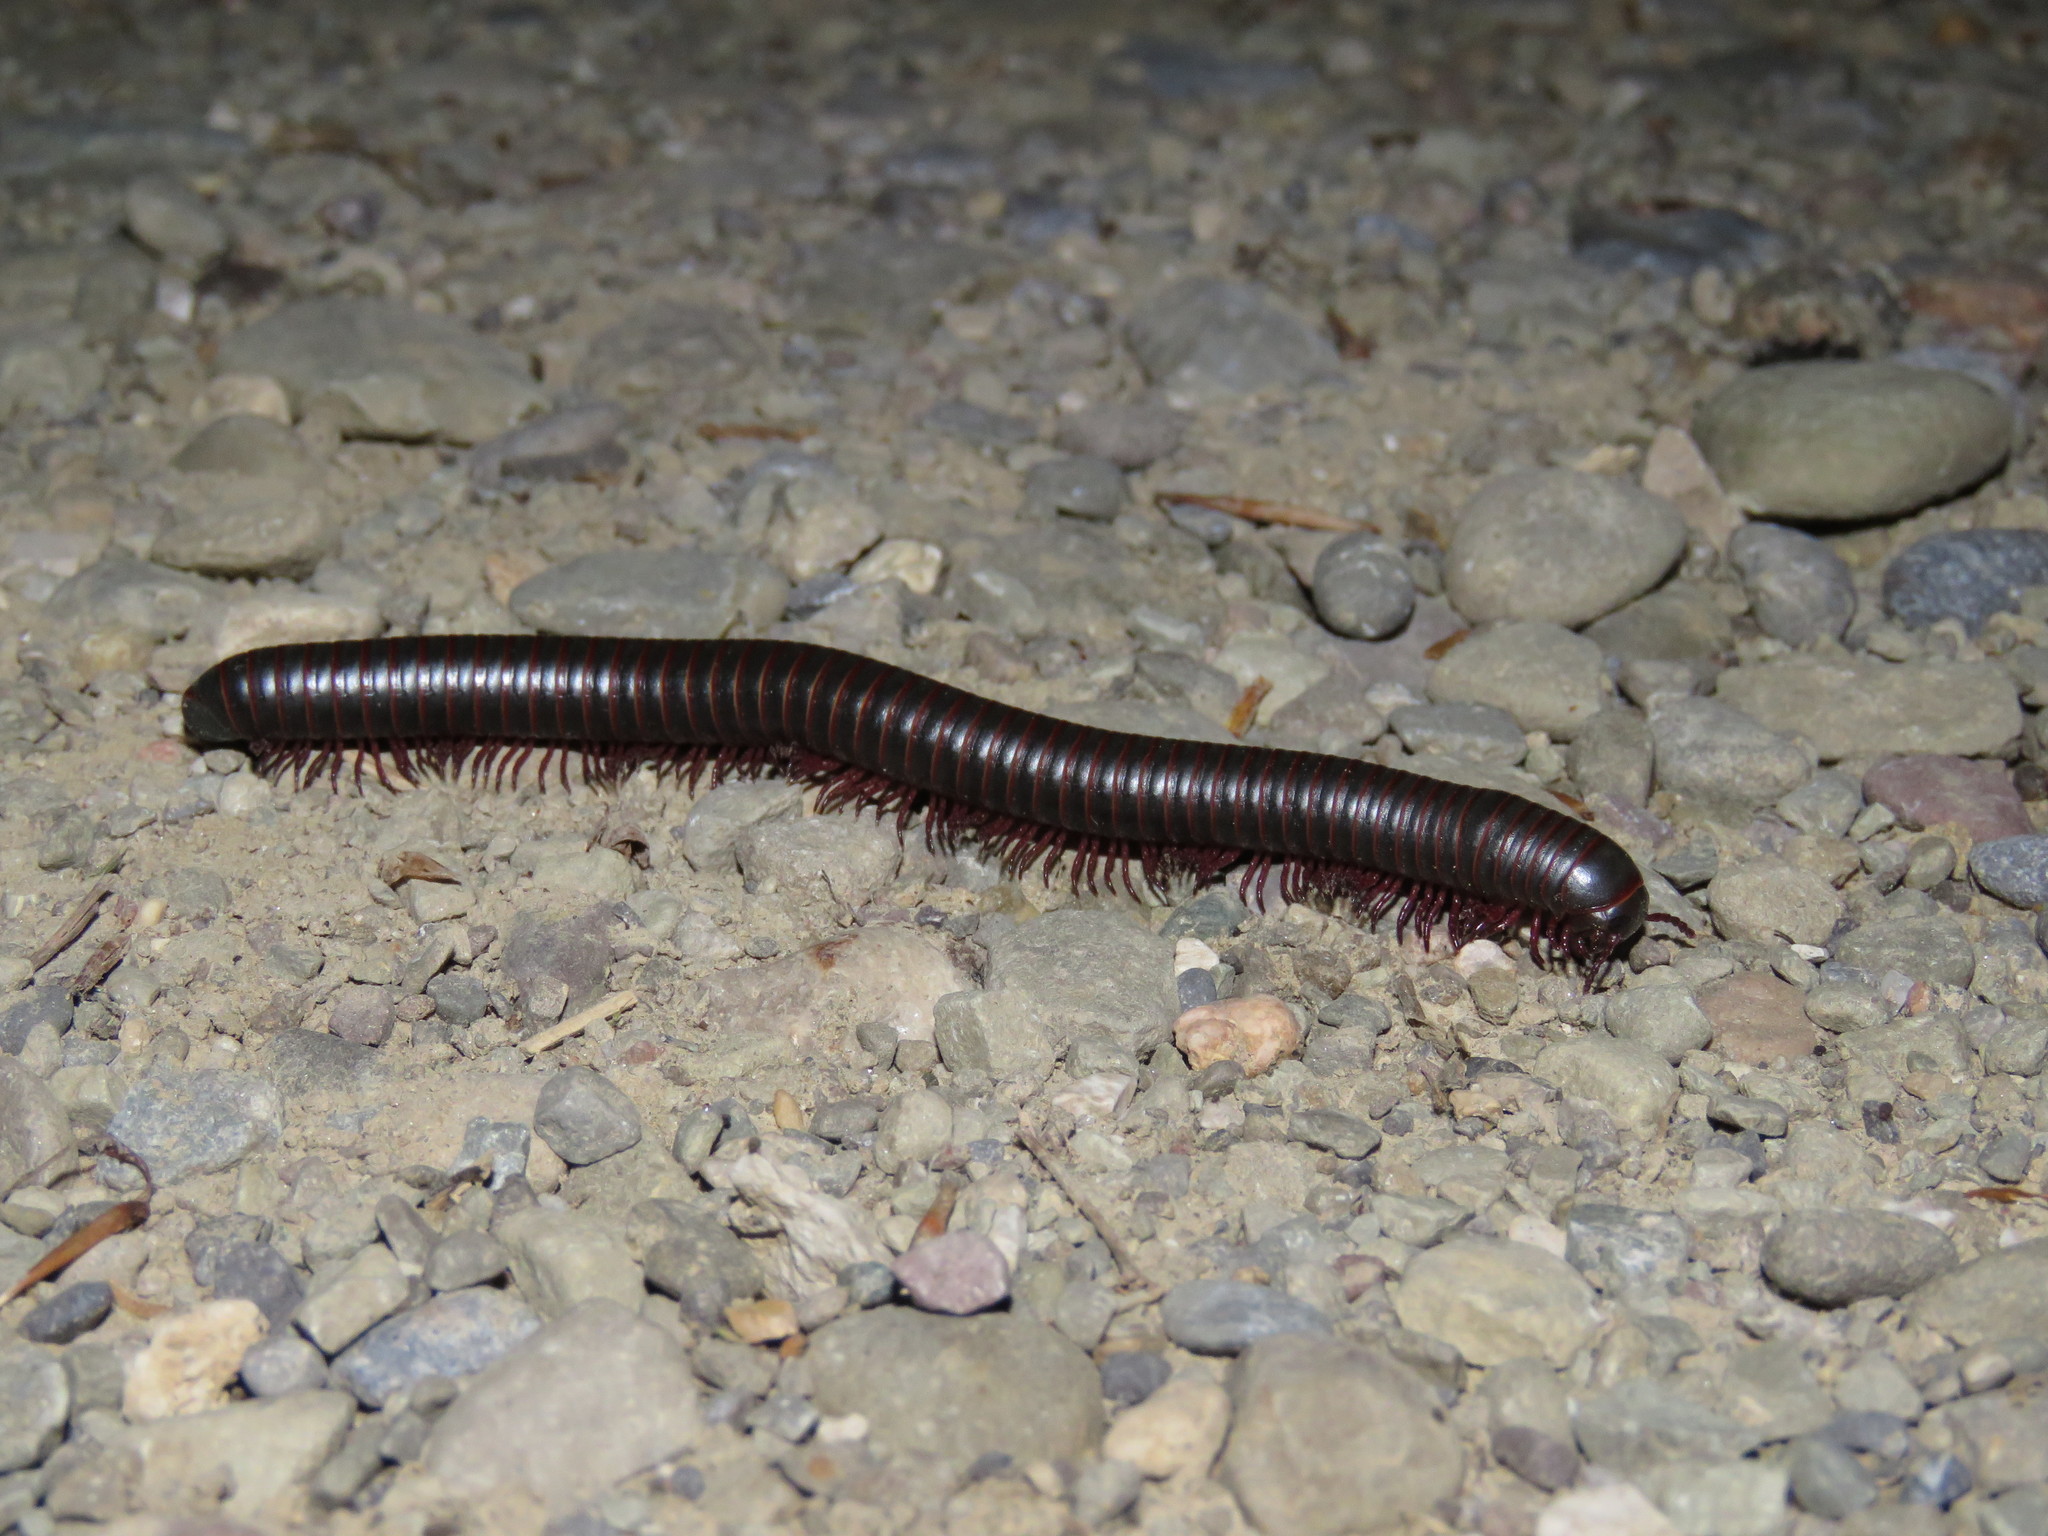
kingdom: Animalia
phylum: Arthropoda
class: Diplopoda
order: Spirobolida
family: Spirobolidae
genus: Narceus
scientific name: Narceus
